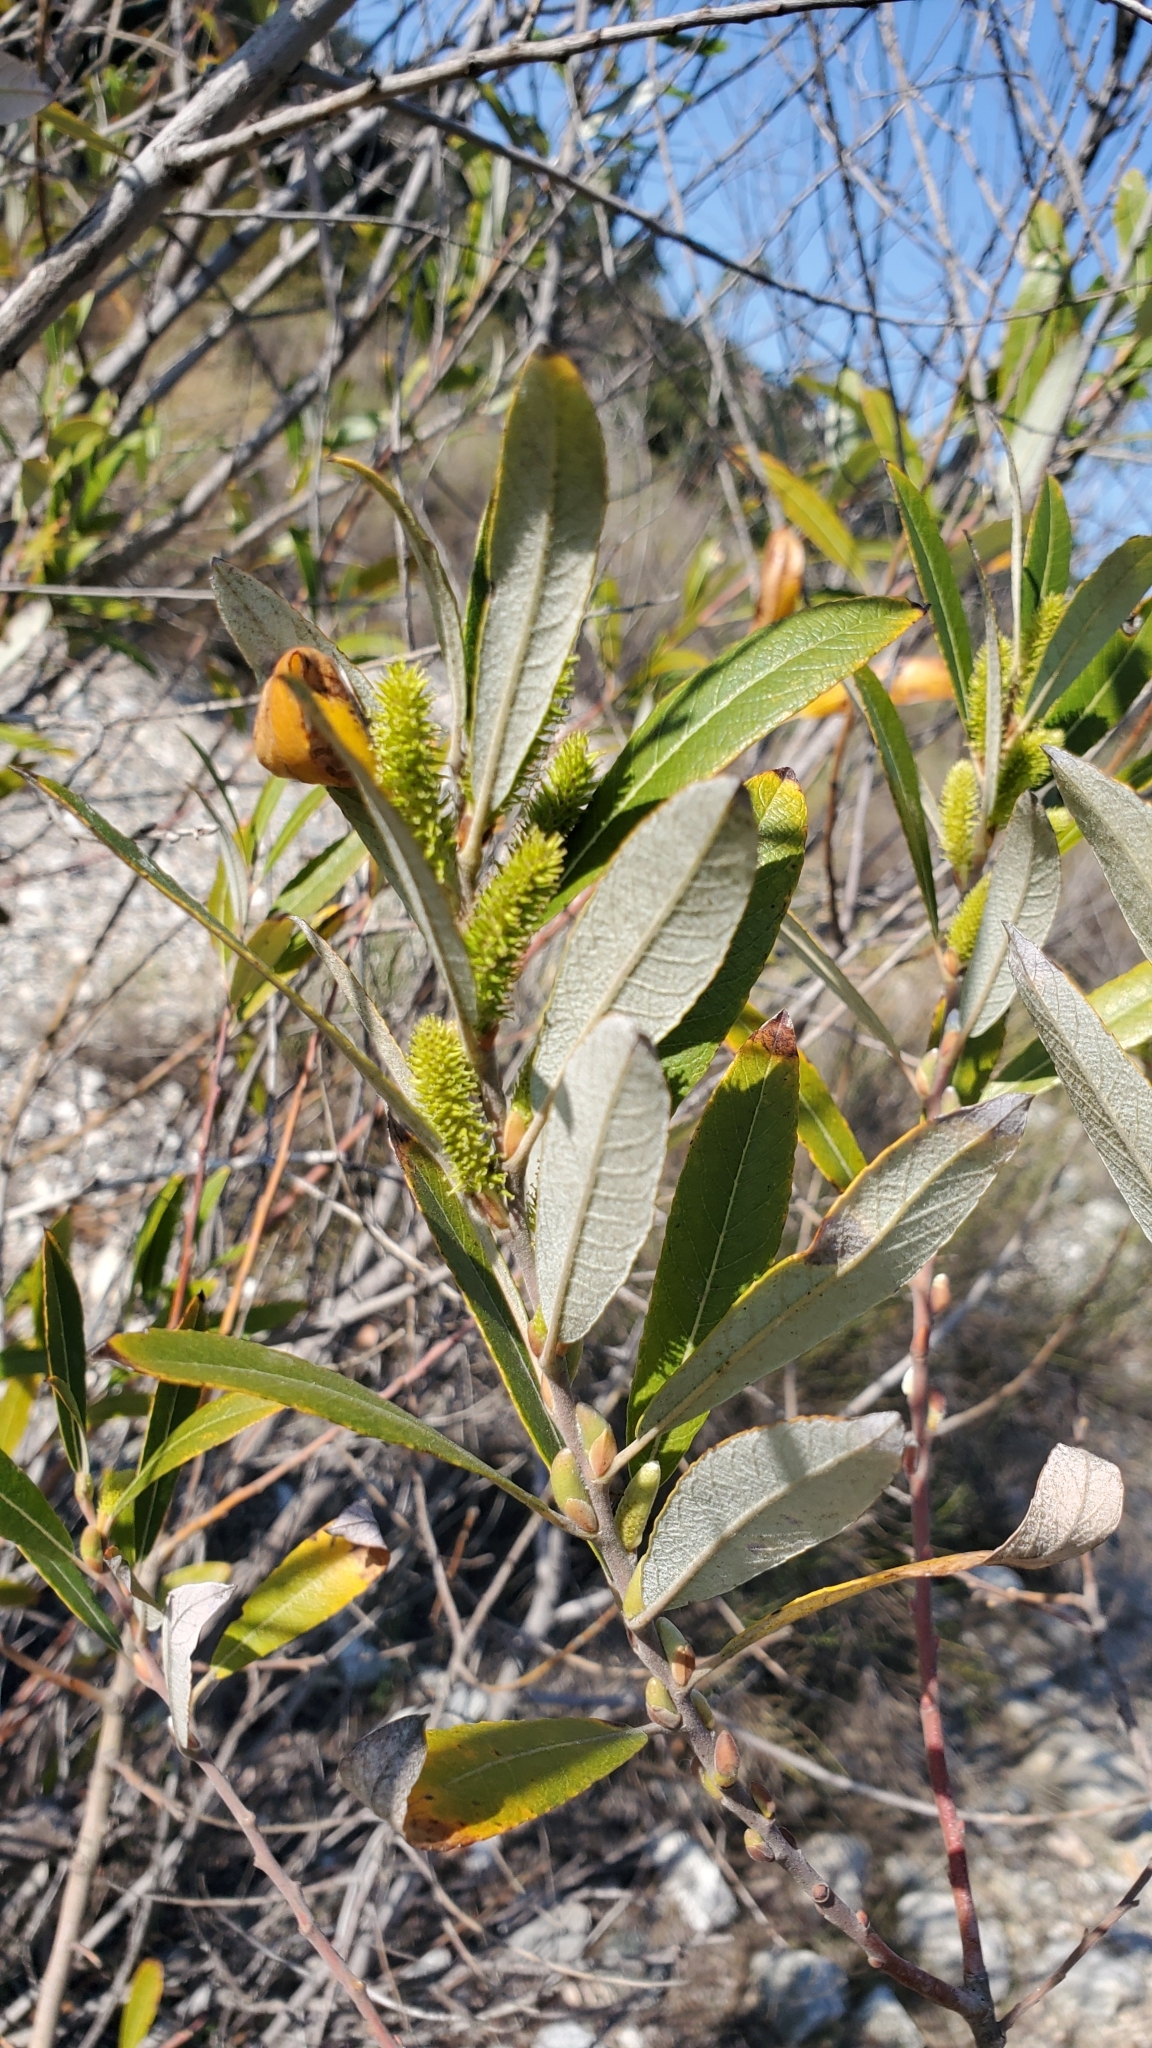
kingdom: Plantae
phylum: Tracheophyta
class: Magnoliopsida
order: Malpighiales
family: Salicaceae
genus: Salix
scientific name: Salix lasiolepis
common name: Arroyo willow
